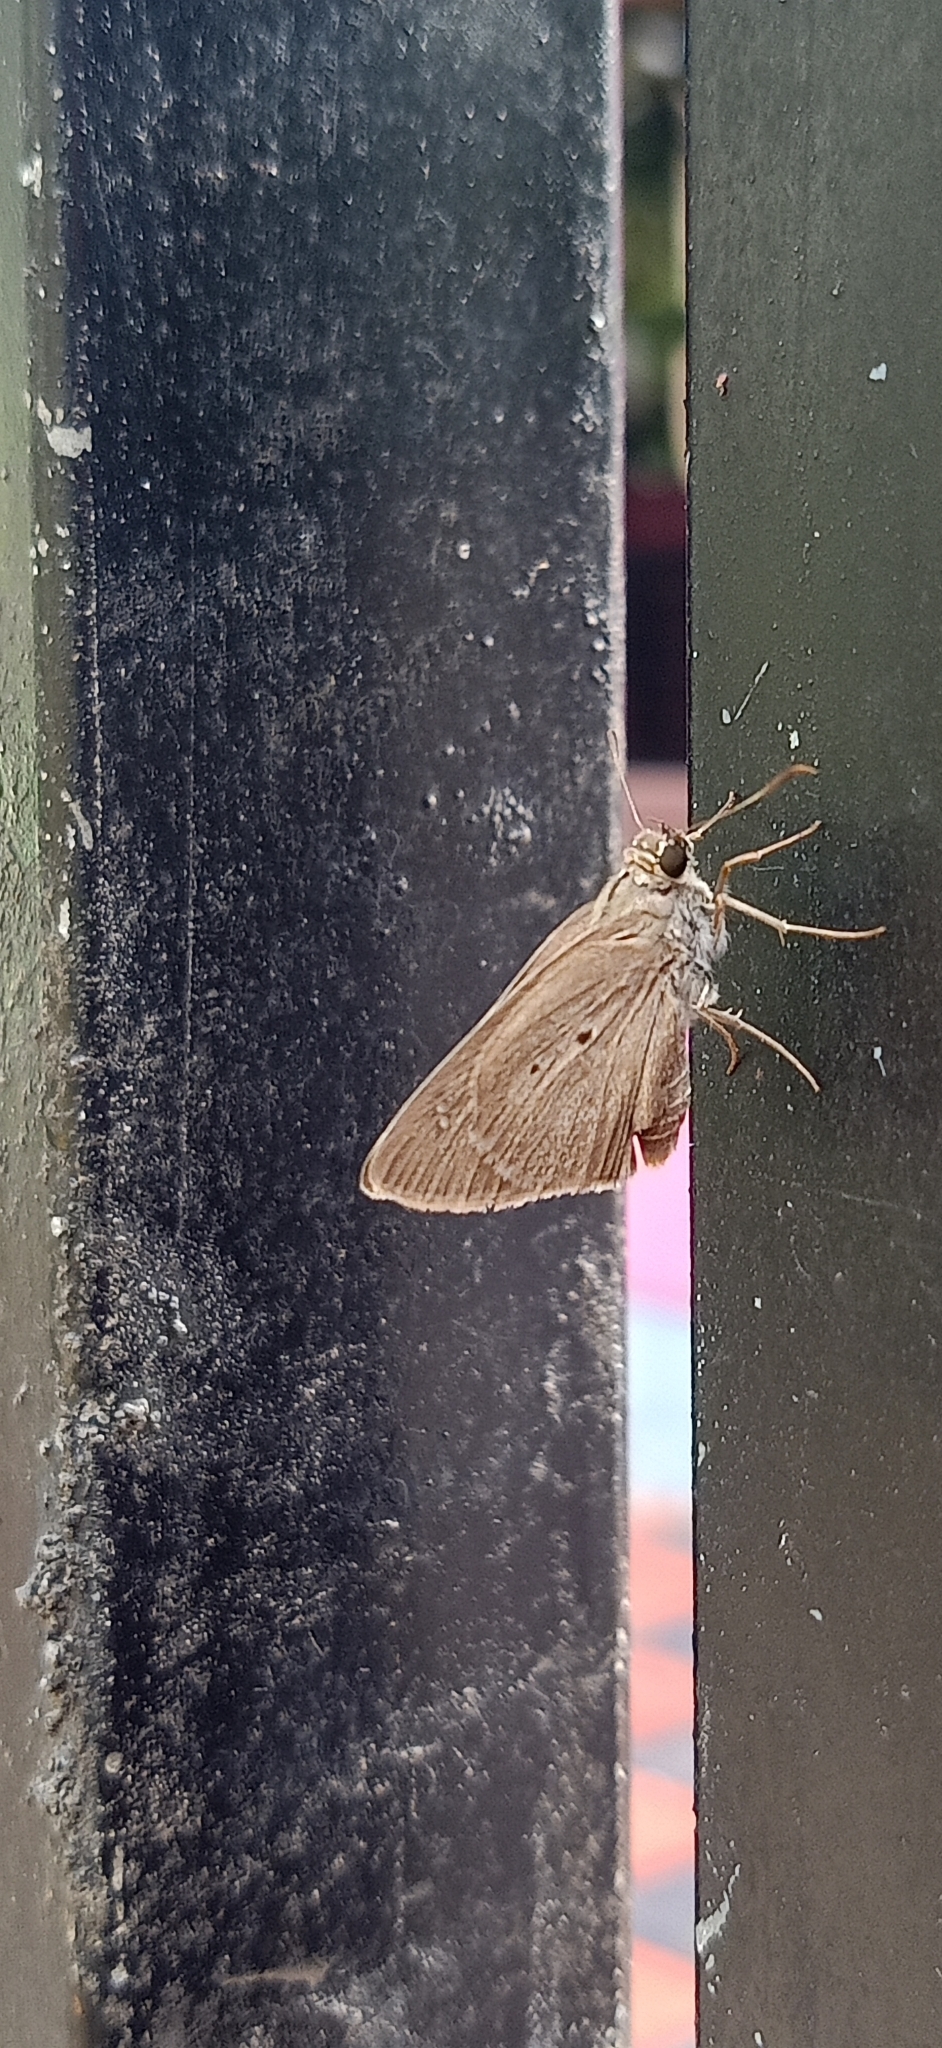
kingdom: Animalia
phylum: Arthropoda
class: Insecta
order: Lepidoptera
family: Hesperiidae
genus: Suastus
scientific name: Suastus gremius
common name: Indian palm bob
